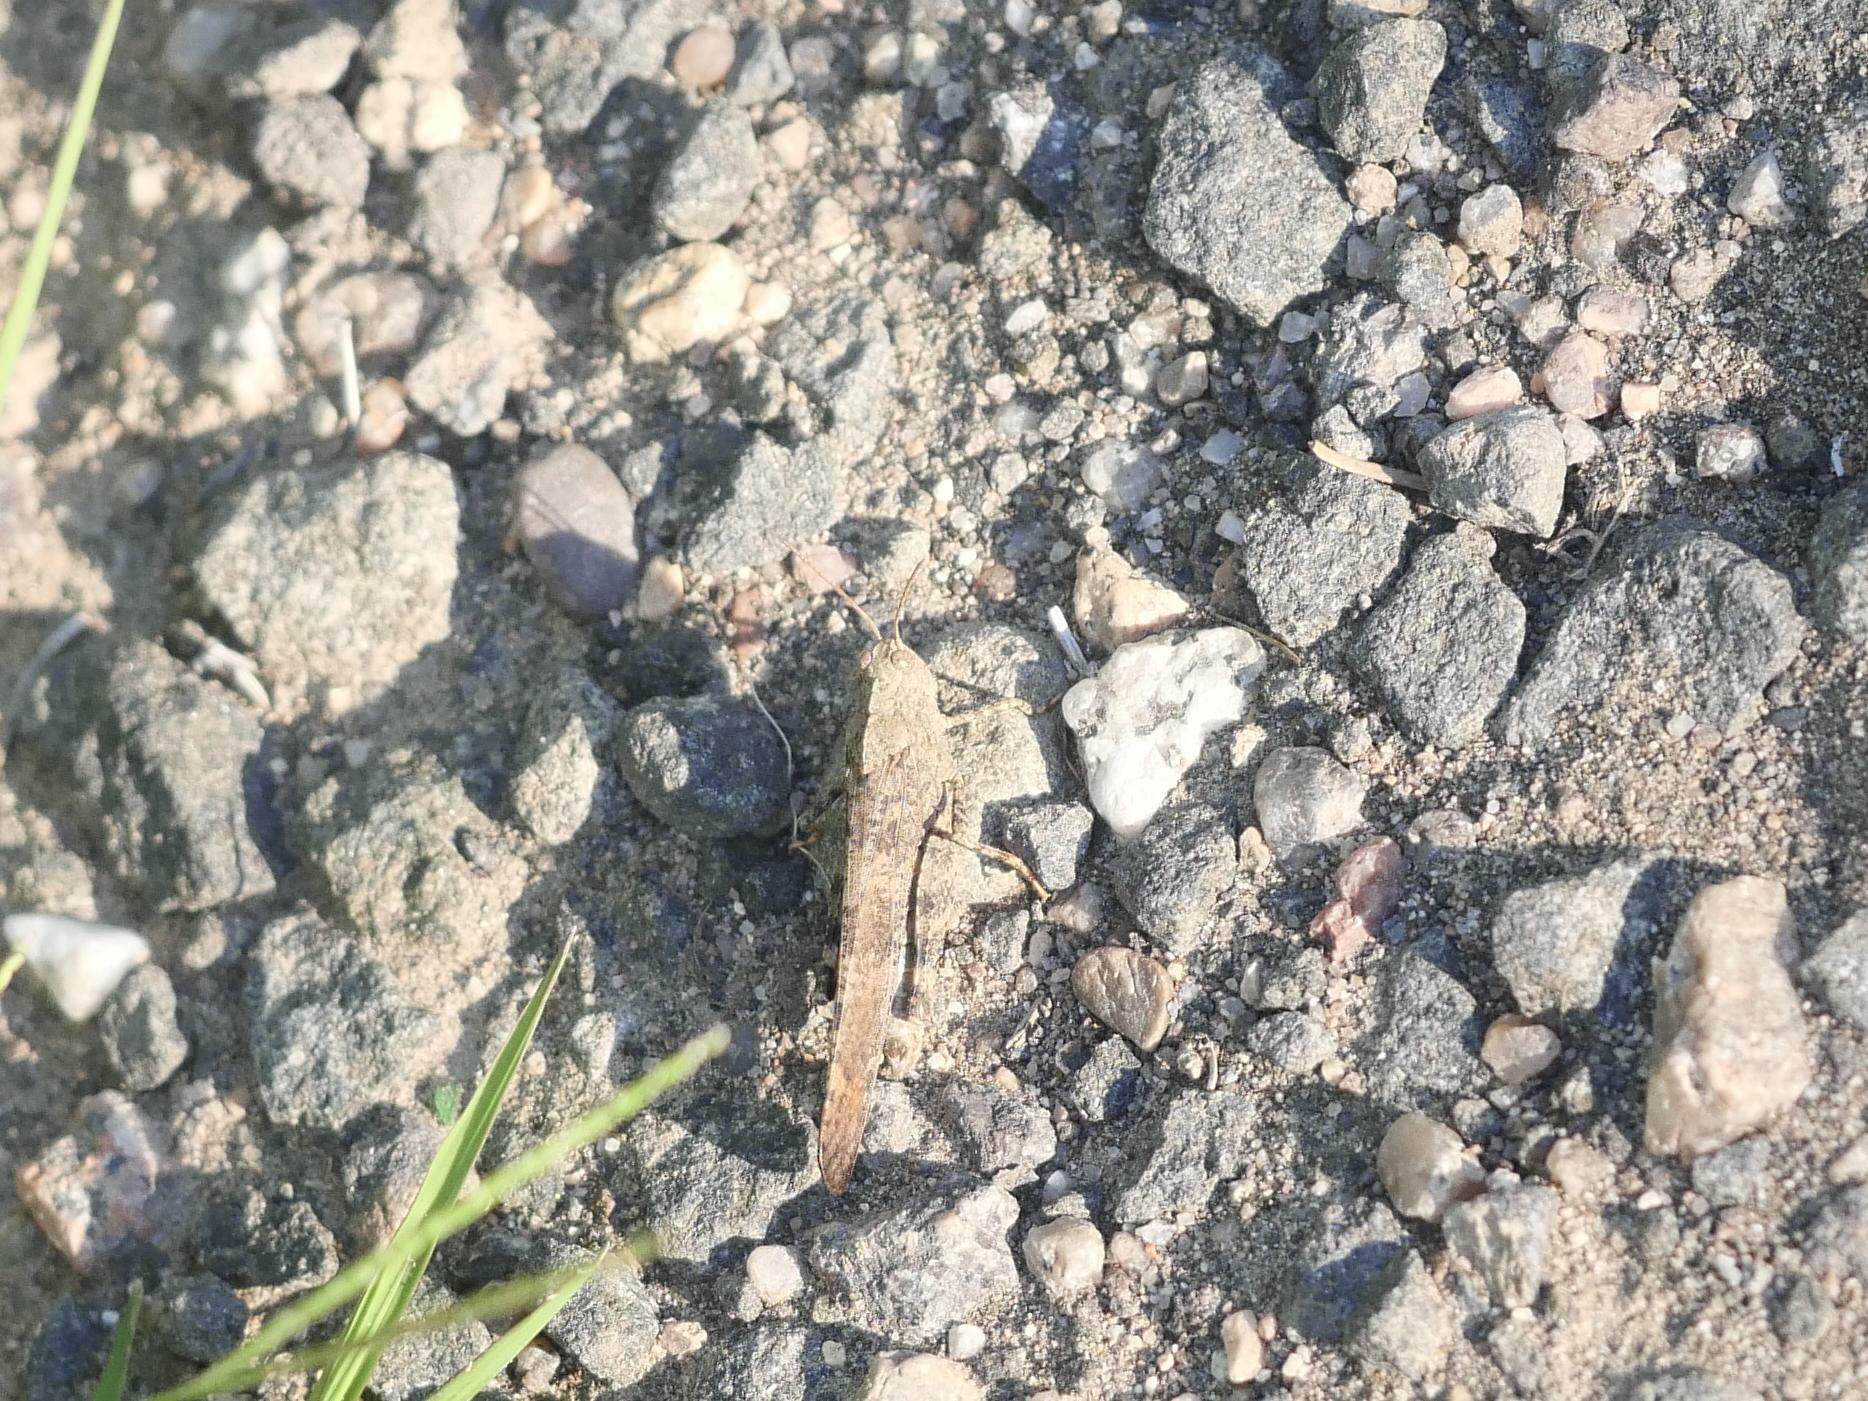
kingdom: Animalia
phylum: Arthropoda
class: Insecta
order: Orthoptera
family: Acrididae
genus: Dissosteira
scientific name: Dissosteira carolina
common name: Carolina grasshopper
